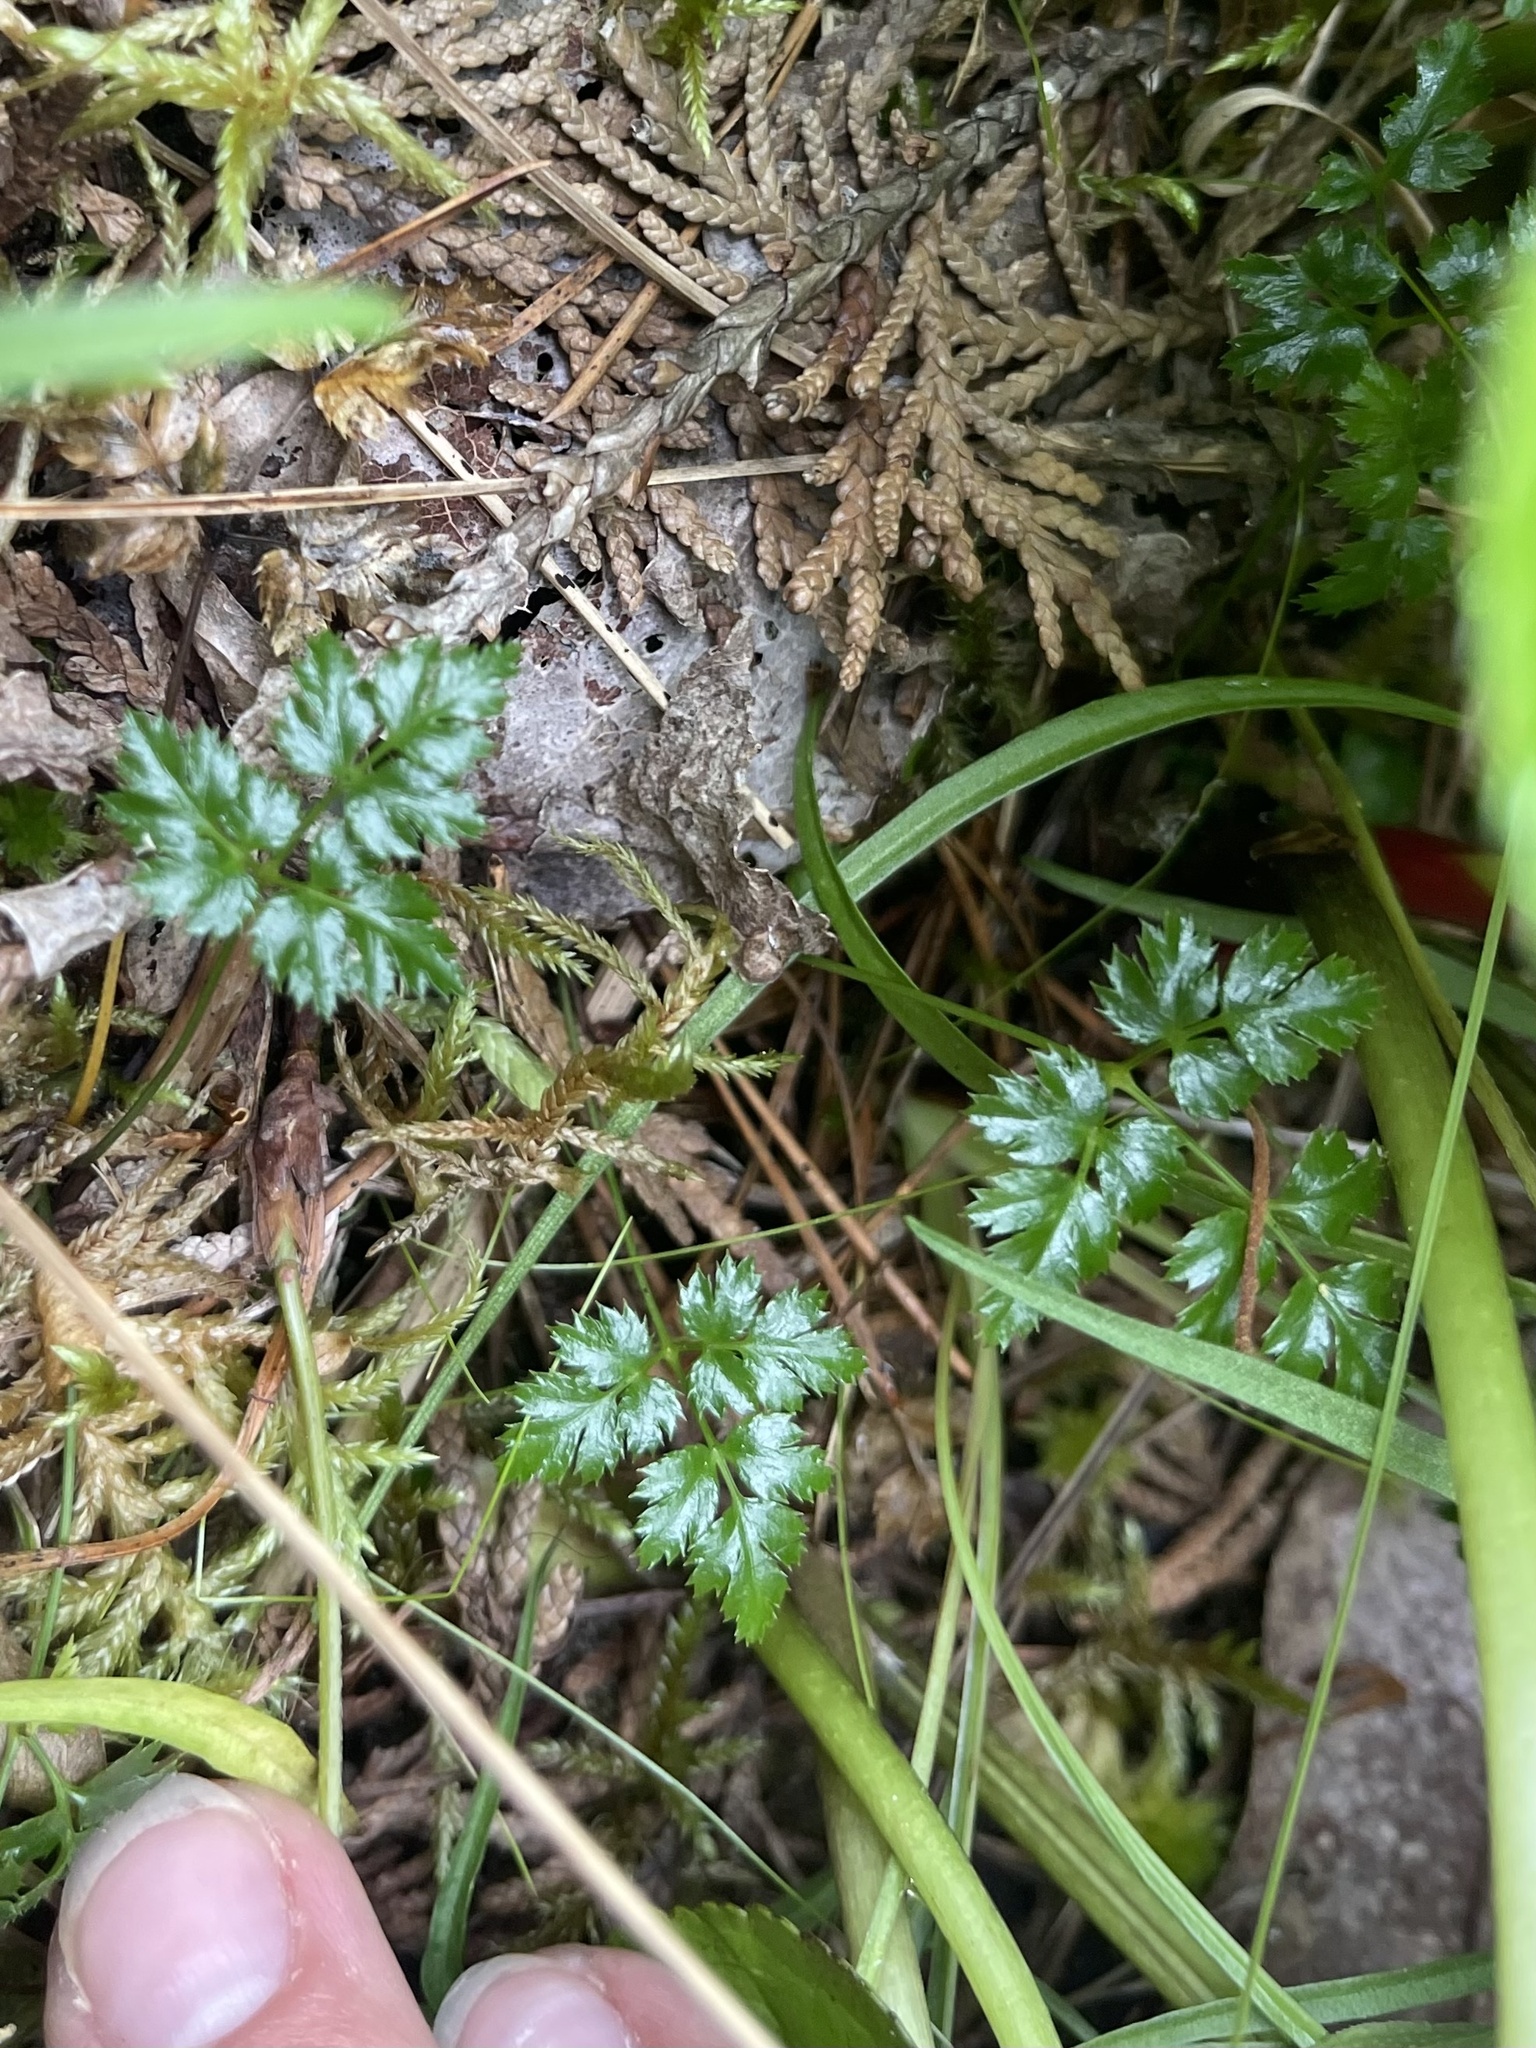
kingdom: Plantae
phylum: Tracheophyta
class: Magnoliopsida
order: Ranunculales
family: Ranunculaceae
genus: Coptis
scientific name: Coptis aspleniifolia
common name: Fern-leaved goldthread
